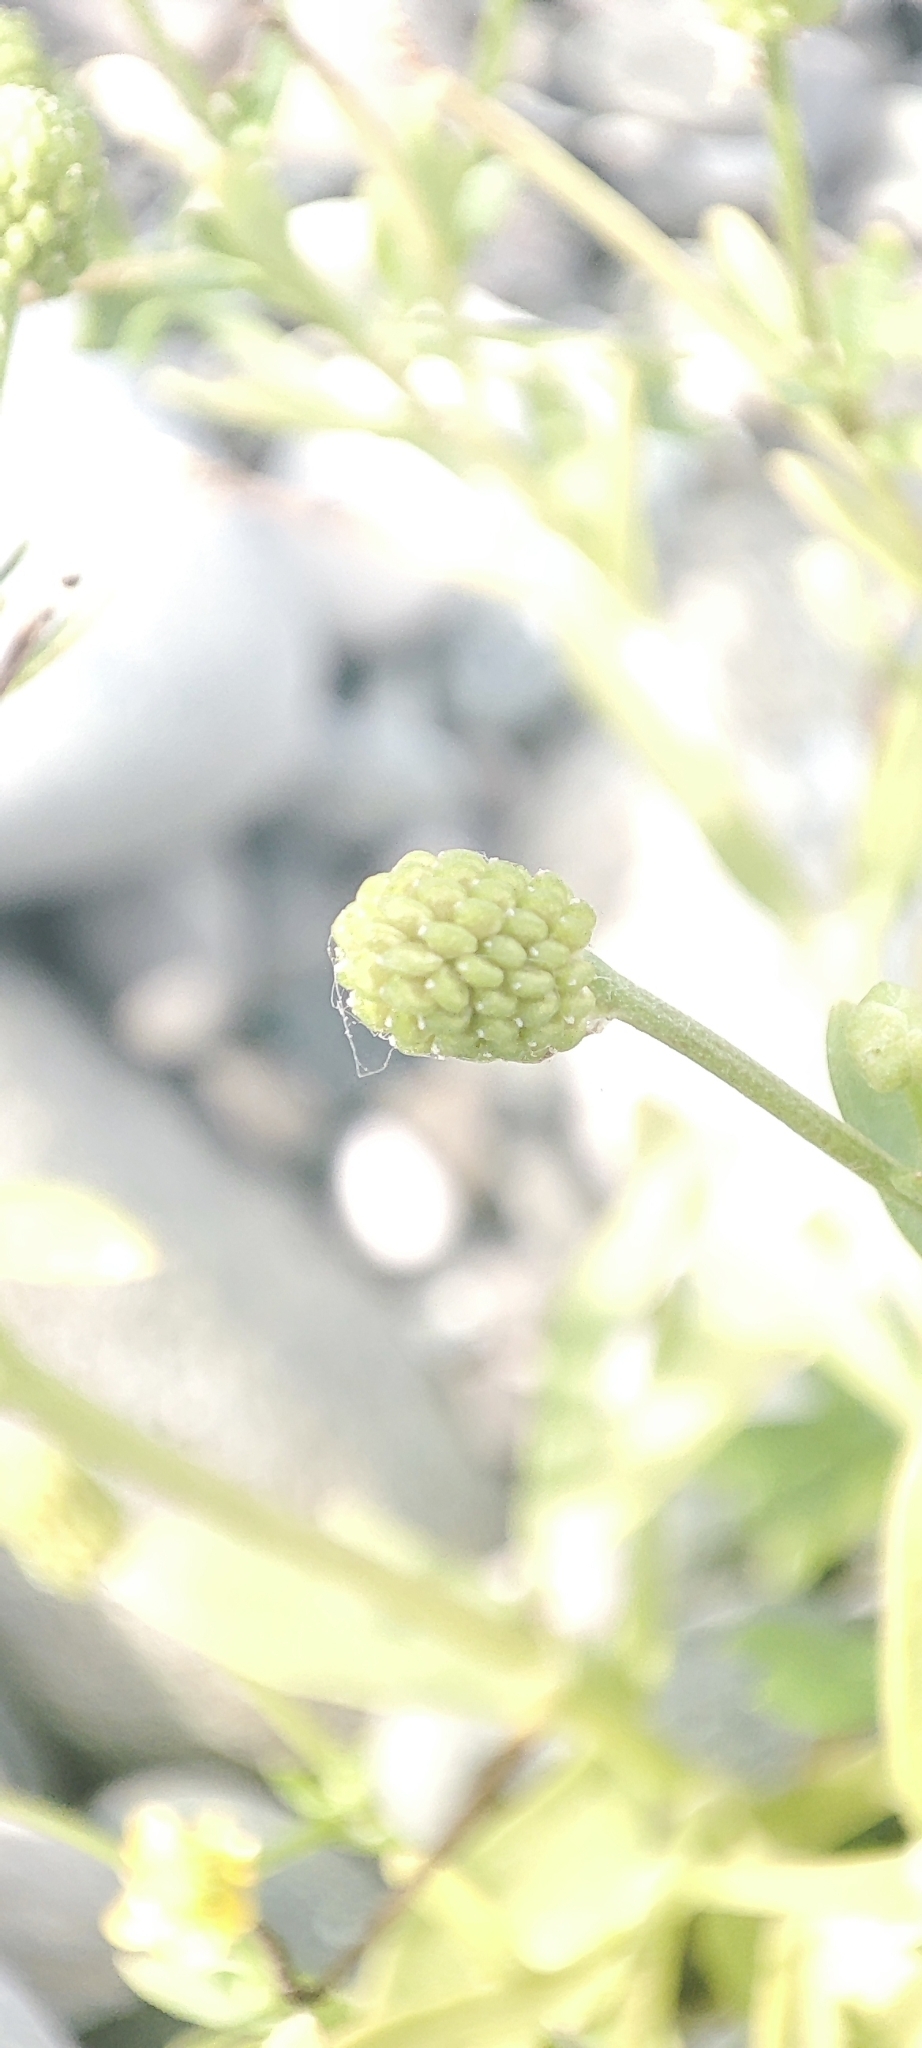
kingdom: Plantae
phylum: Tracheophyta
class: Magnoliopsida
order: Ranunculales
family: Ranunculaceae
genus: Ranunculus
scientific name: Ranunculus sceleratus
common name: Celery-leaved buttercup
